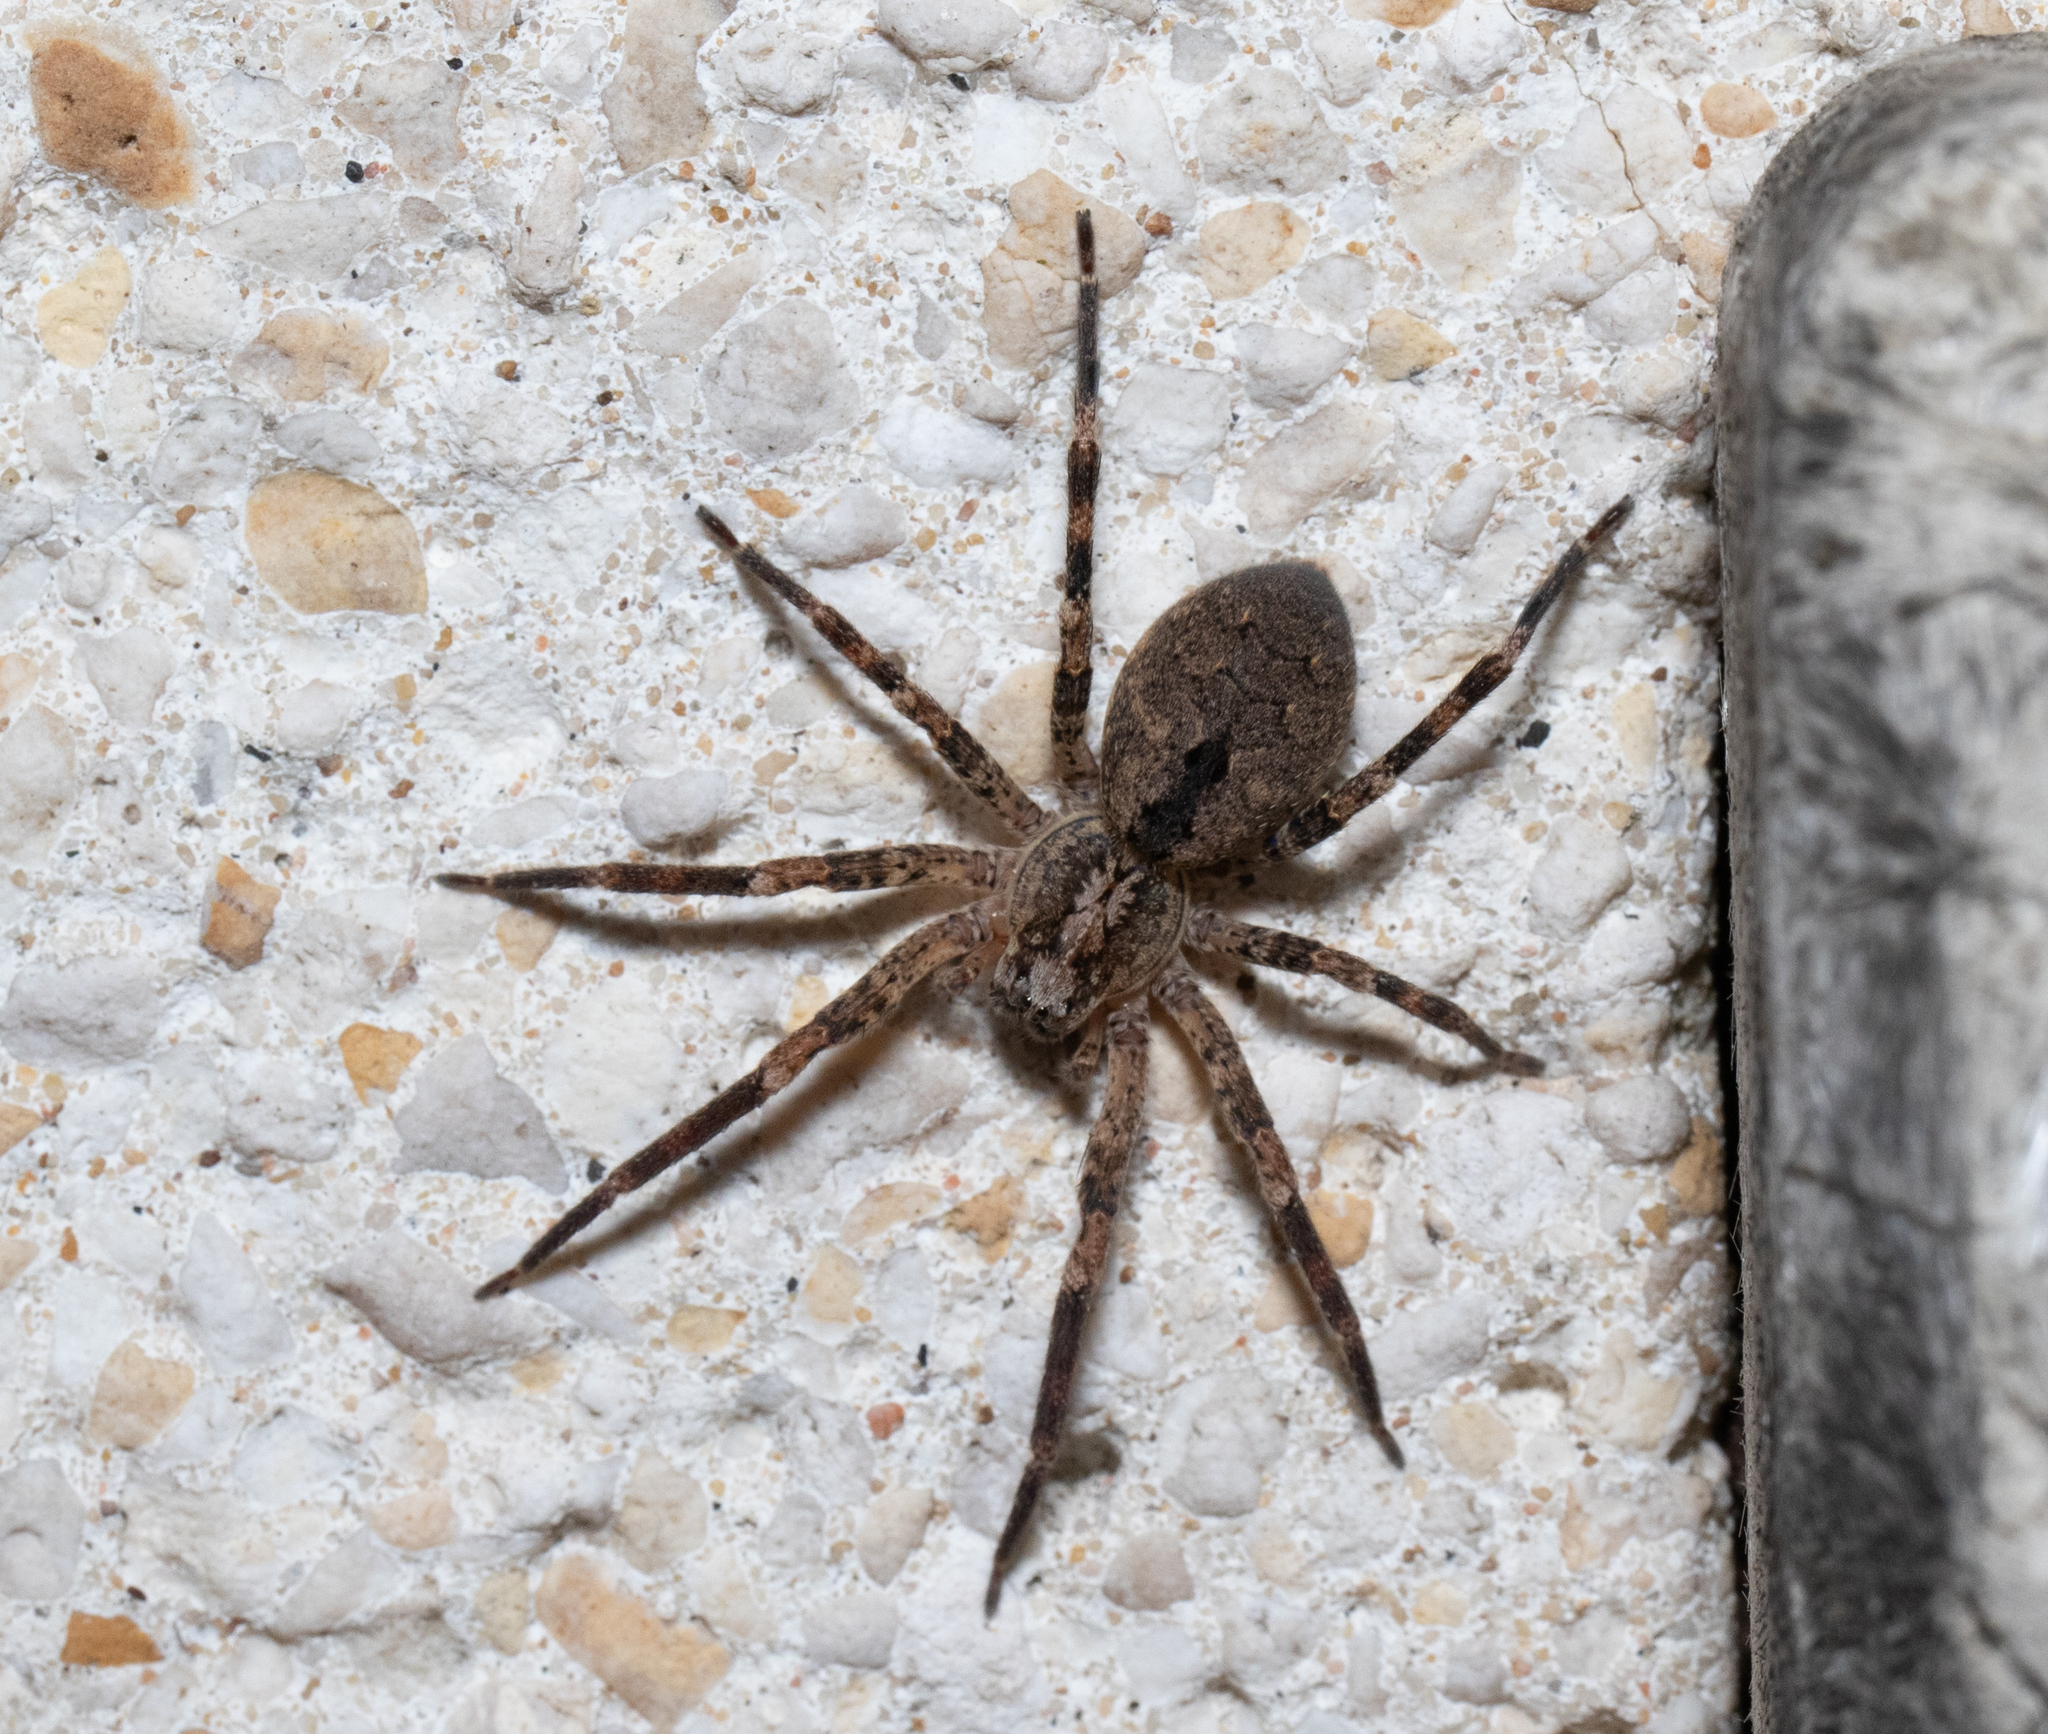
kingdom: Animalia
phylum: Arthropoda
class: Arachnida
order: Araneae
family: Zoropsidae
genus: Zoropsis
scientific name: Zoropsis spinimana
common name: Zoropsid spider
